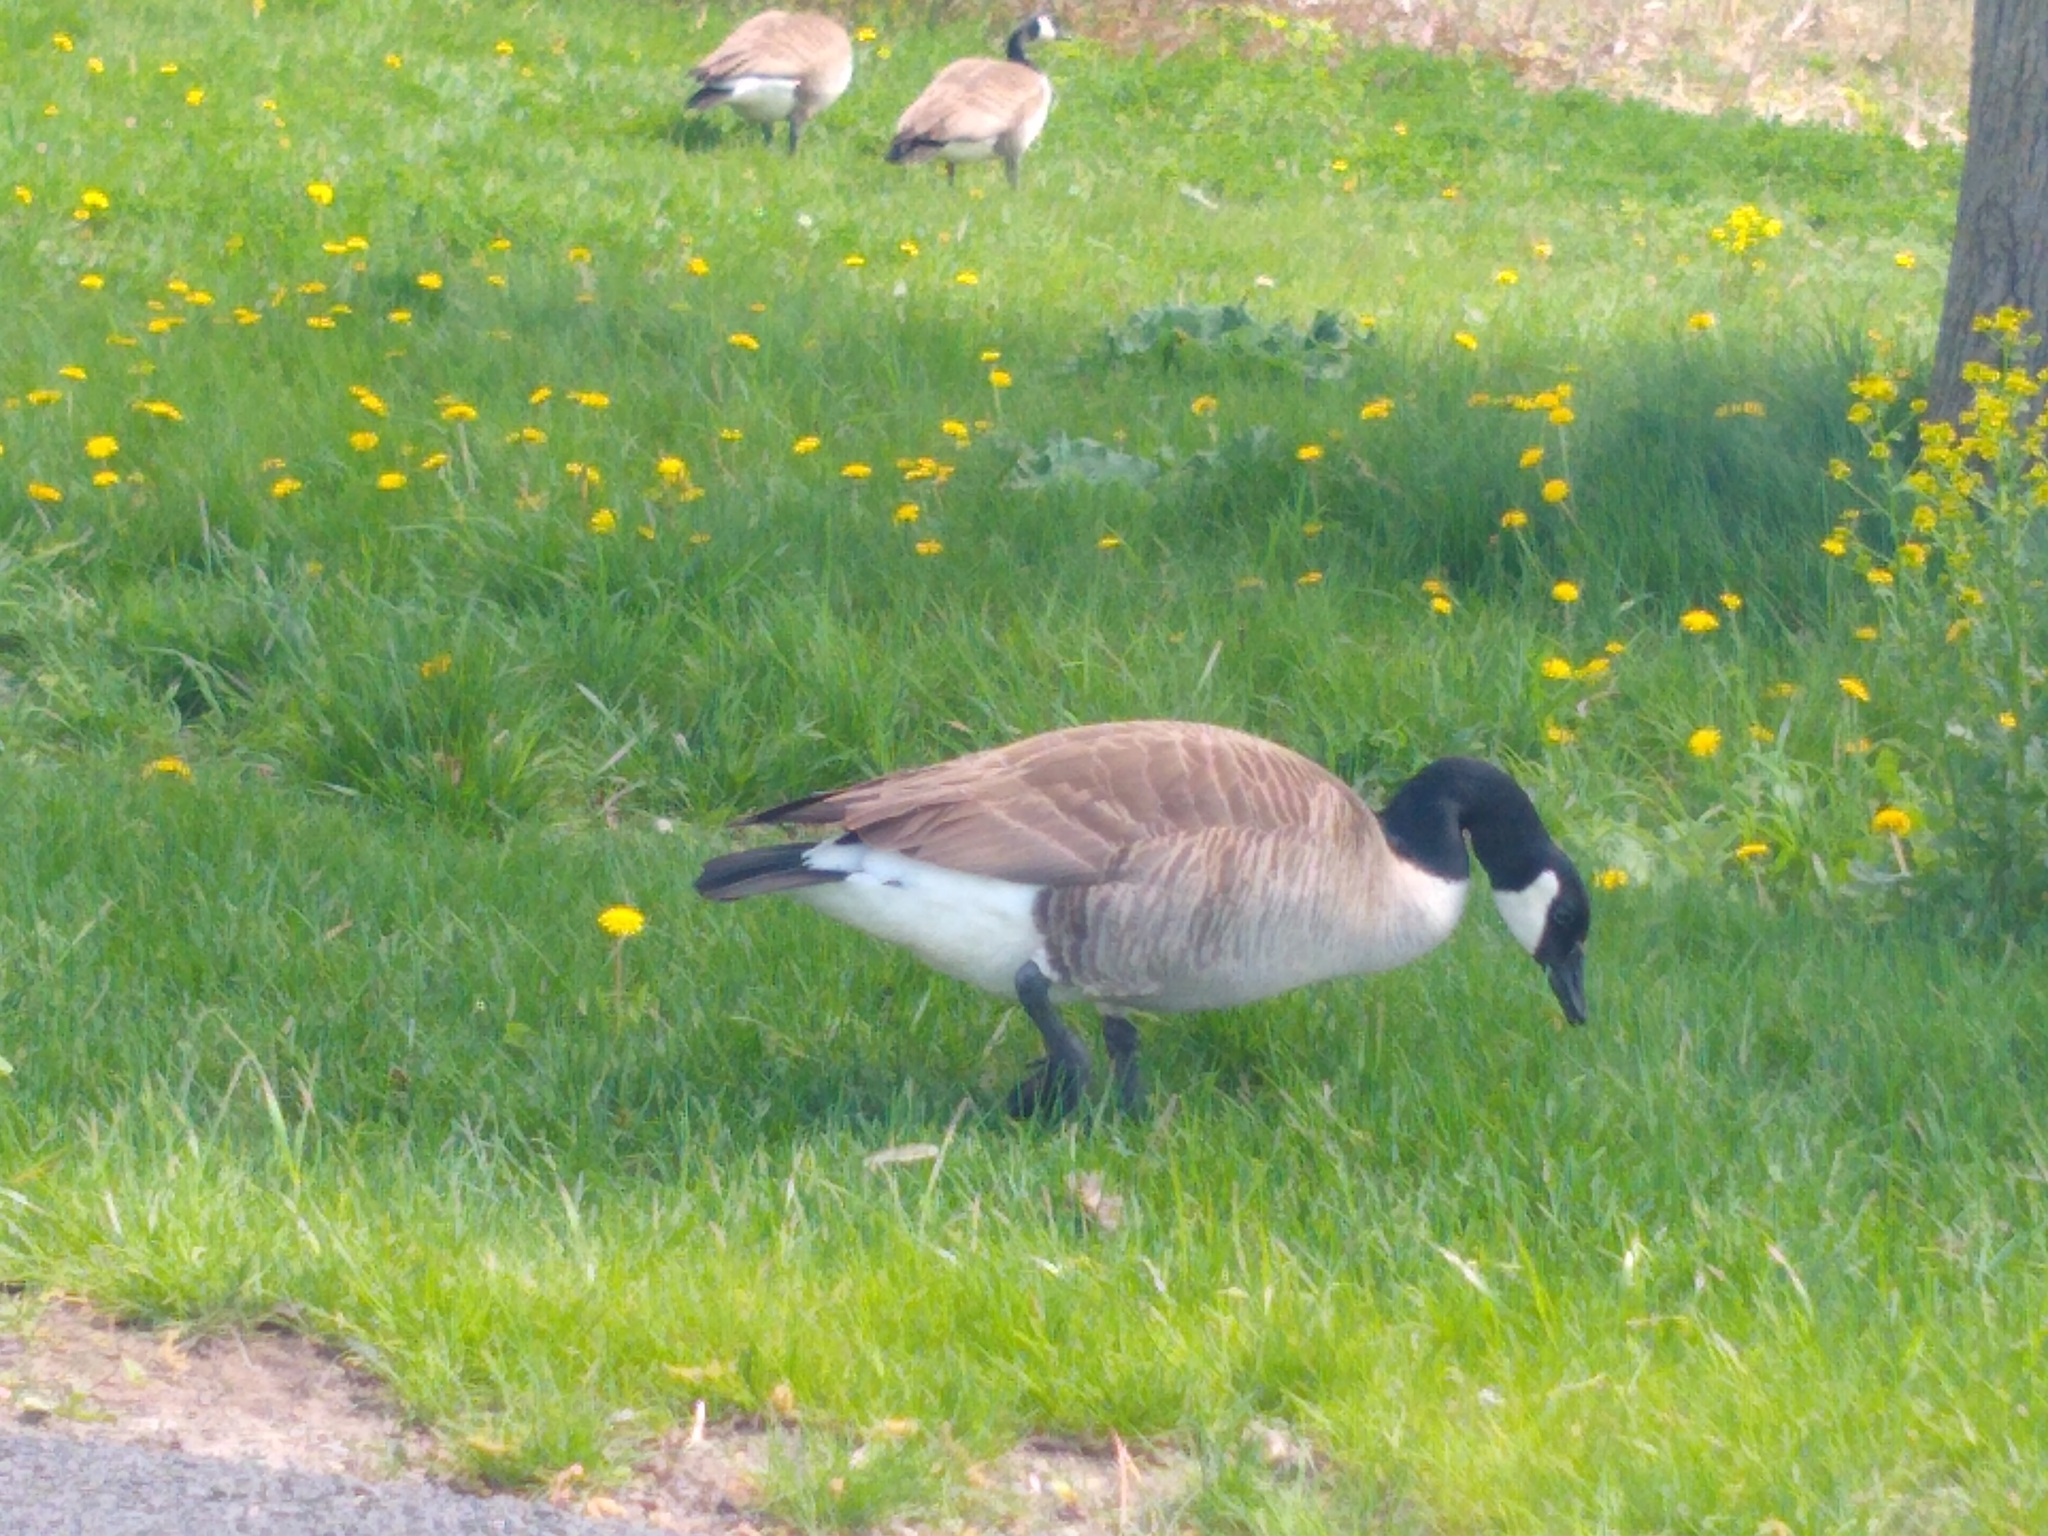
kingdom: Animalia
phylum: Chordata
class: Aves
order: Anseriformes
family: Anatidae
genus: Branta
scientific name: Branta canadensis
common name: Canada goose
